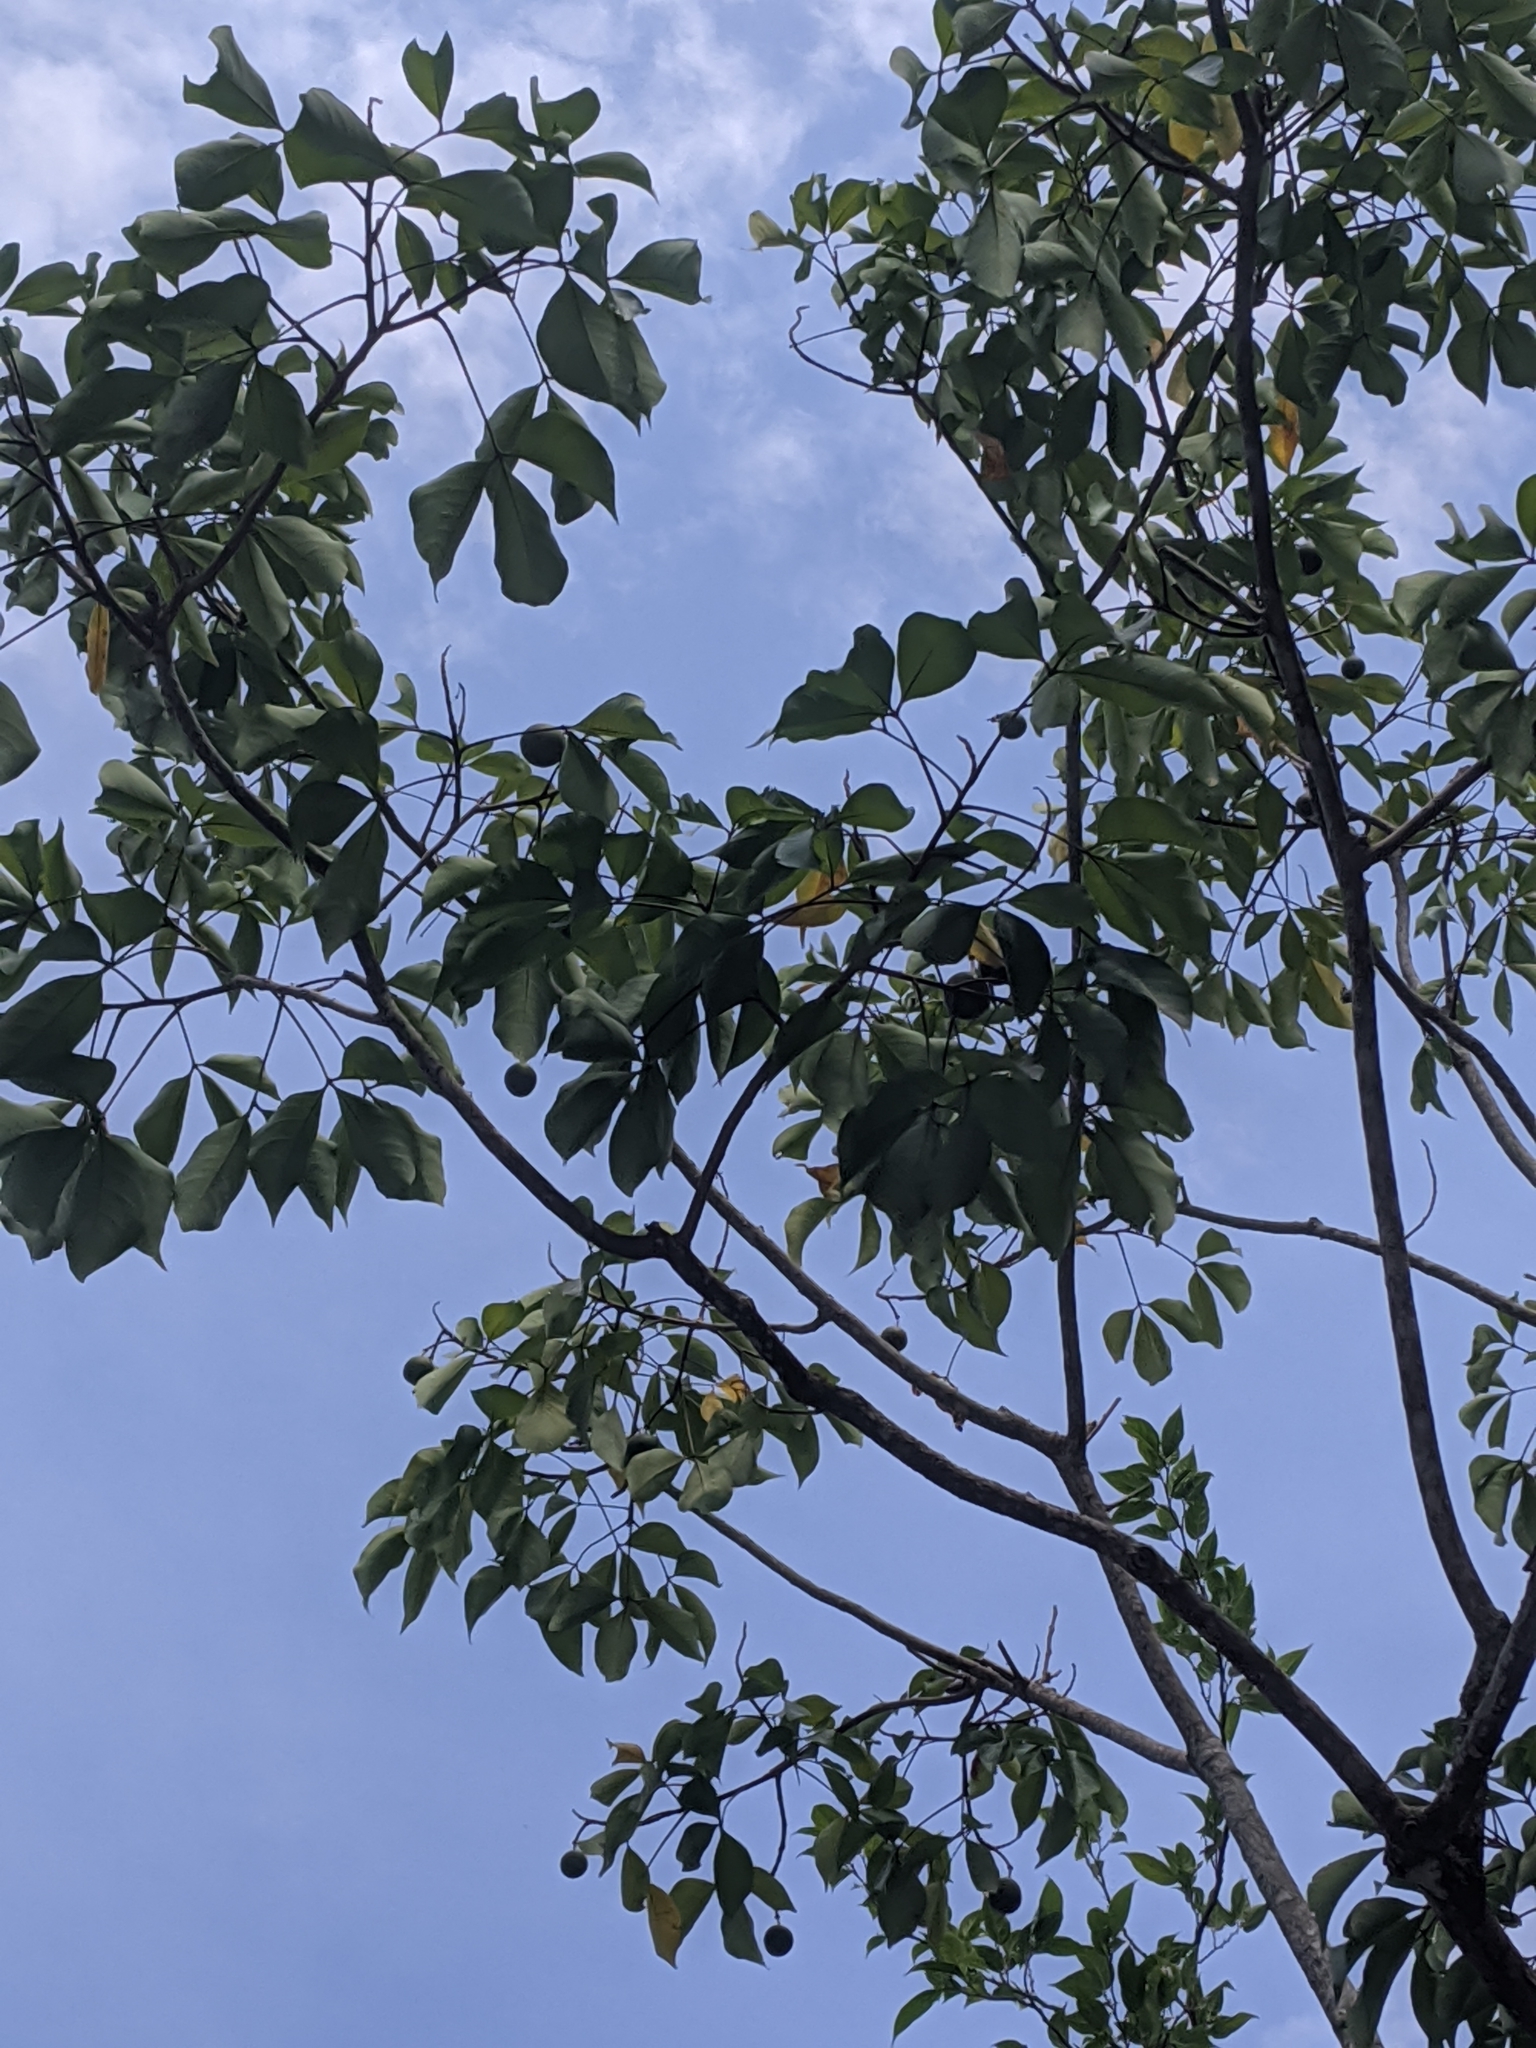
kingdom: Plantae
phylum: Tracheophyta
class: Magnoliopsida
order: Brassicales
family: Capparaceae
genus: Crateva
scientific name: Crateva formosensis
